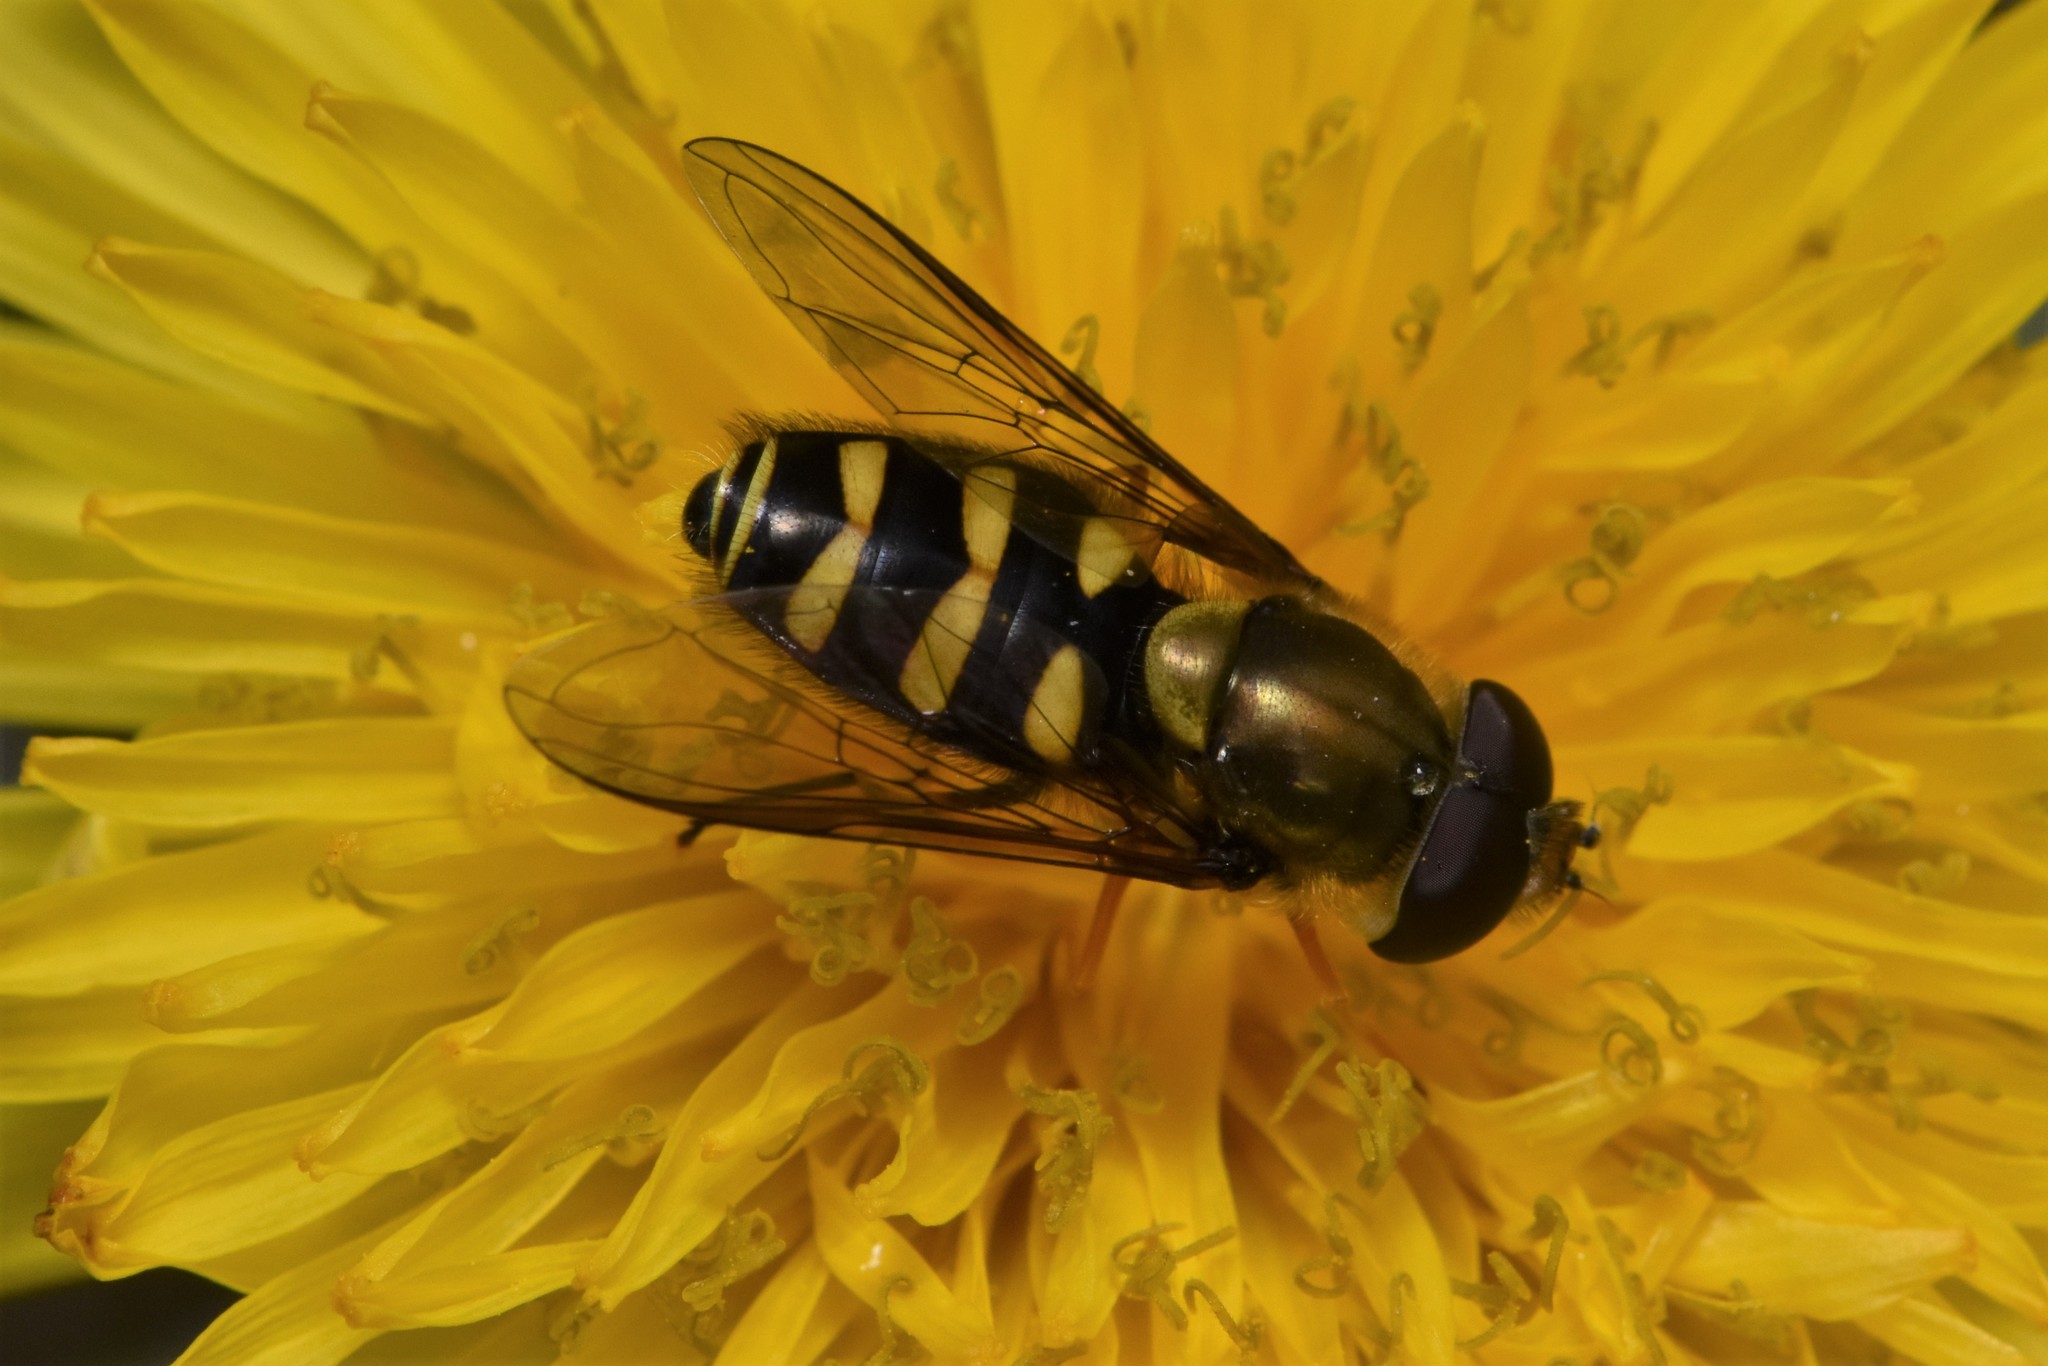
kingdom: Animalia
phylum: Arthropoda
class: Insecta
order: Diptera
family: Syrphidae
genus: Syrphus
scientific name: Syrphus opinator
